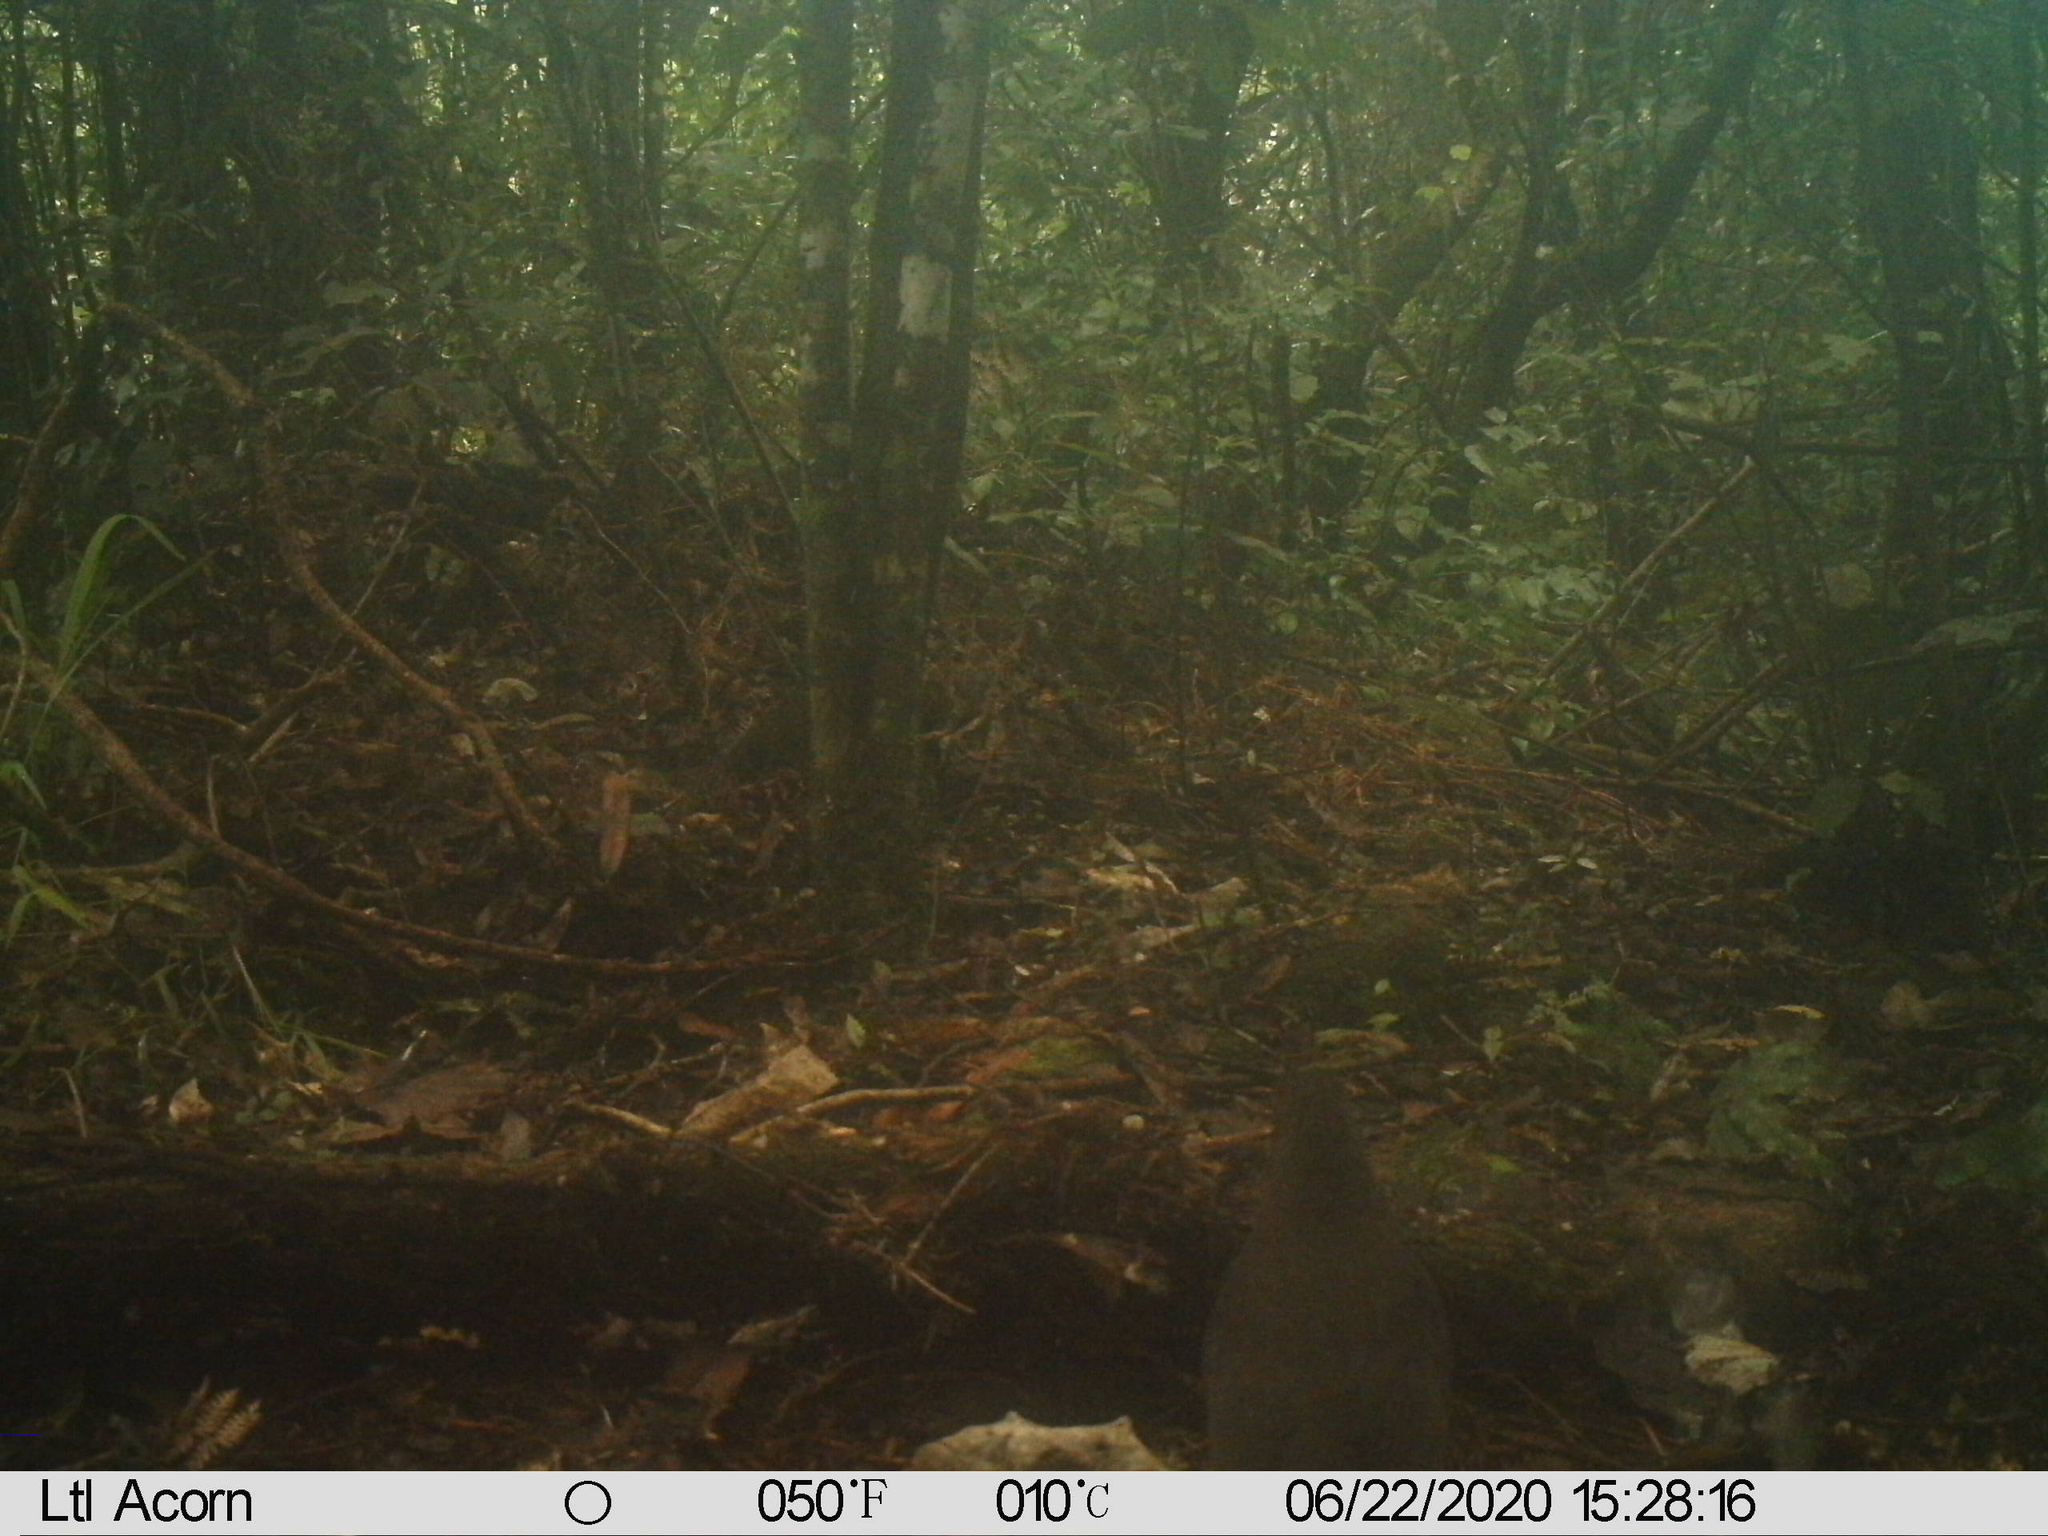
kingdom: Animalia
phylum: Chordata
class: Aves
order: Passeriformes
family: Turdidae
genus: Turdus
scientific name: Turdus merula
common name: Common blackbird
